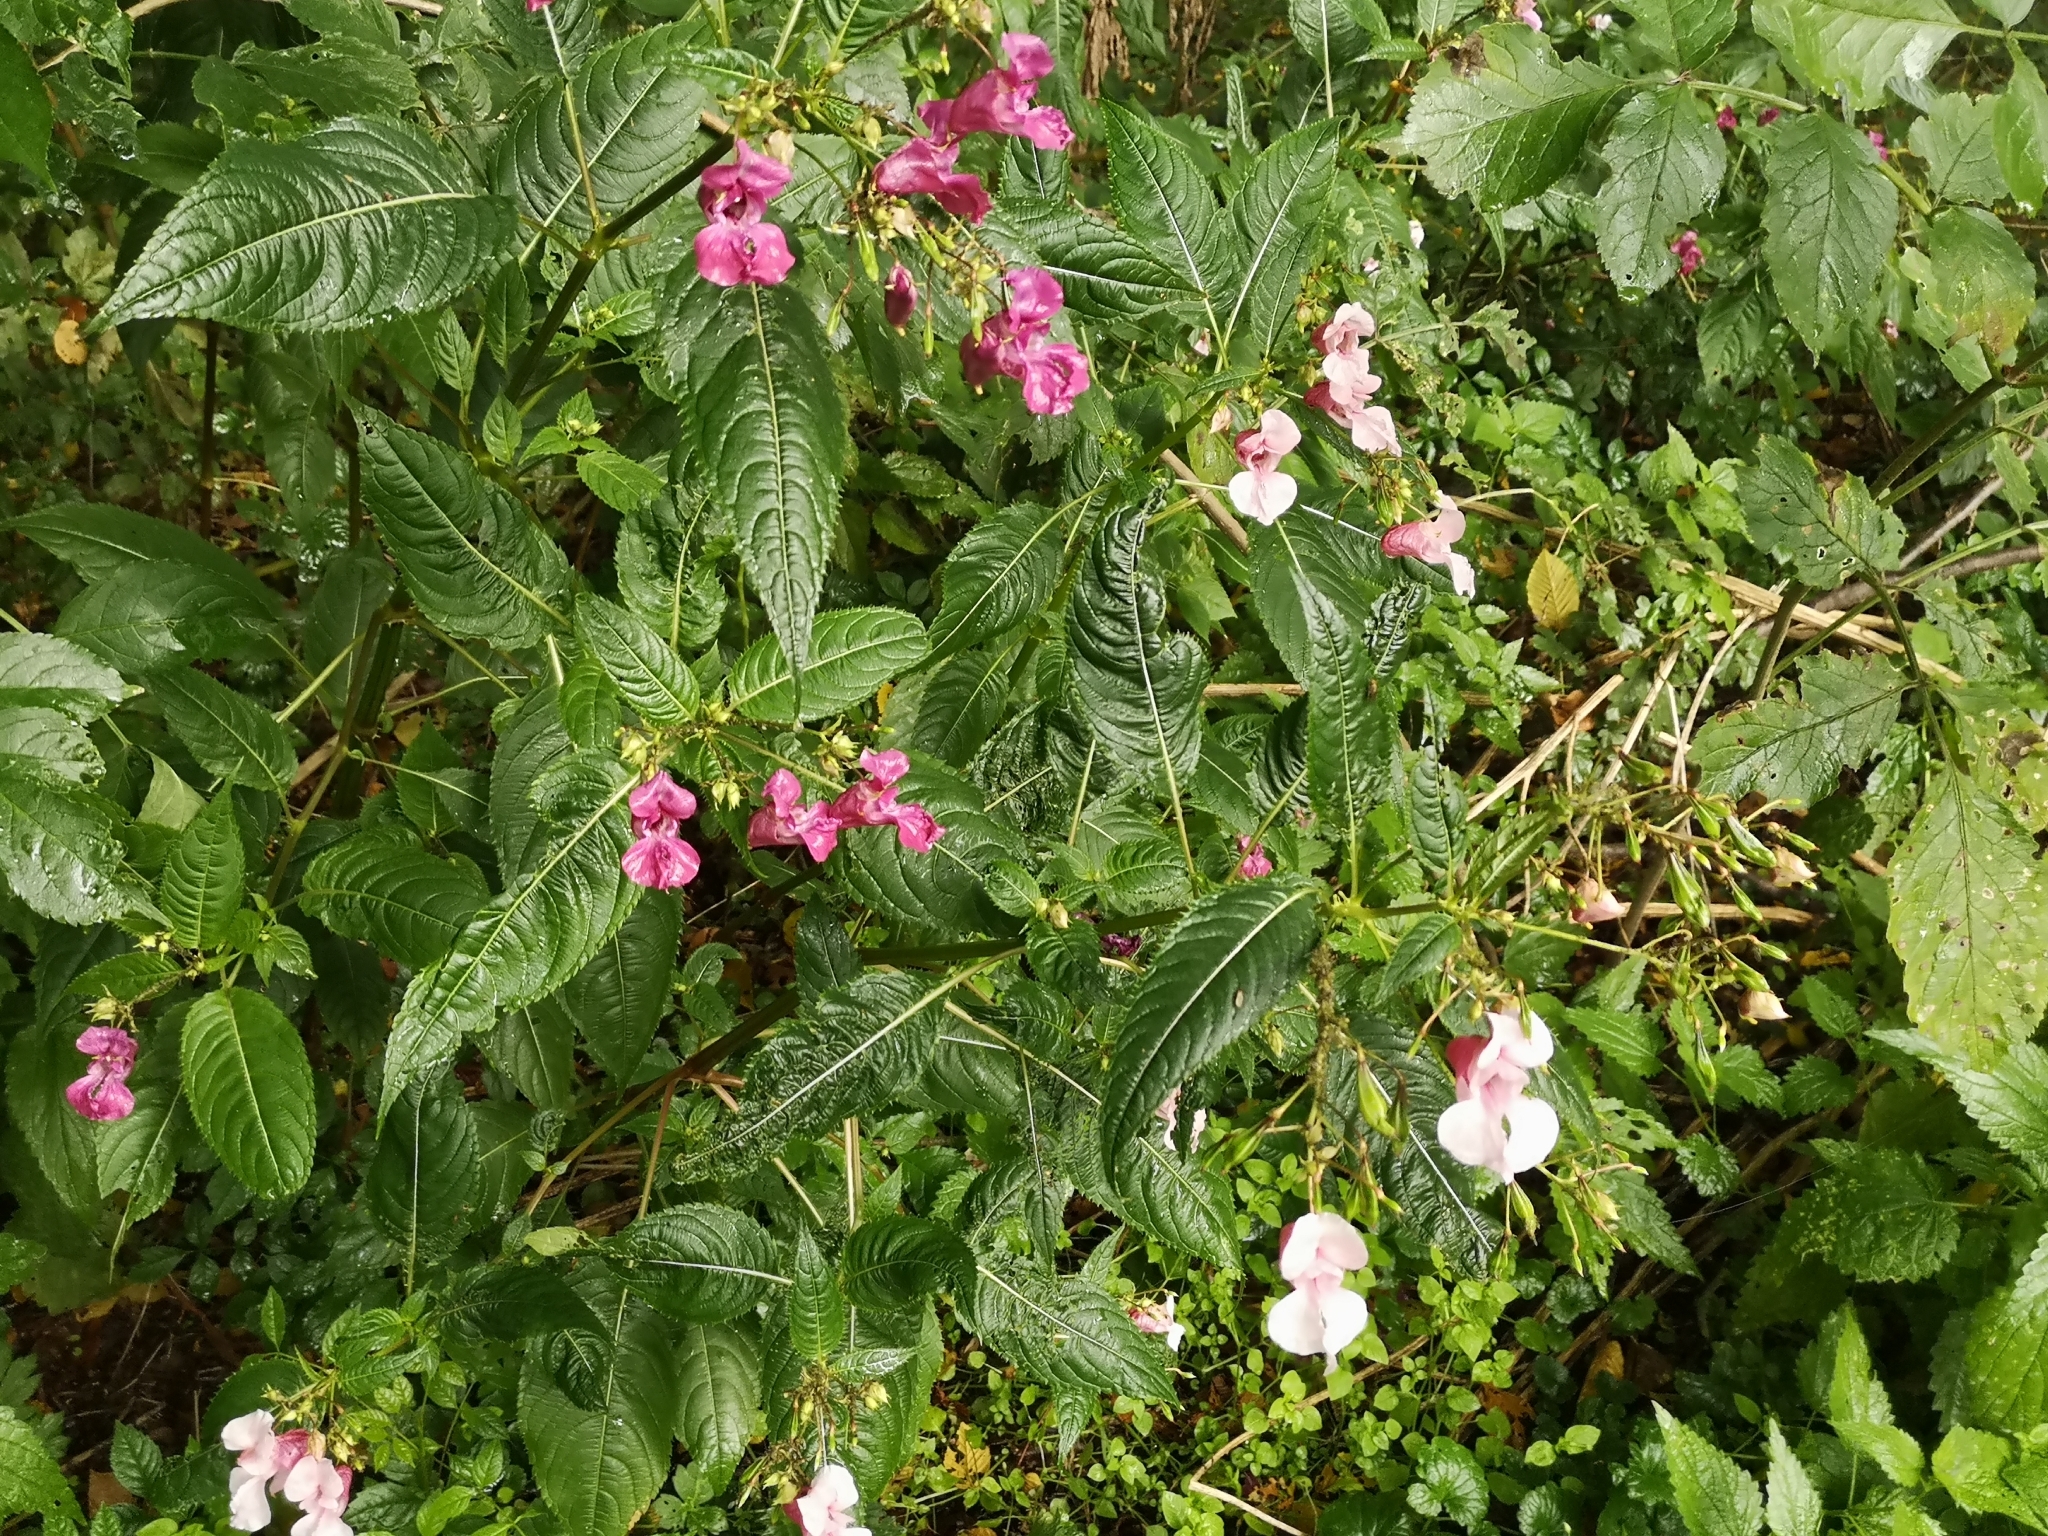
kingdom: Plantae
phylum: Tracheophyta
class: Magnoliopsida
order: Ericales
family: Balsaminaceae
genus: Impatiens
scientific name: Impatiens glandulifera
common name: Himalayan balsam
